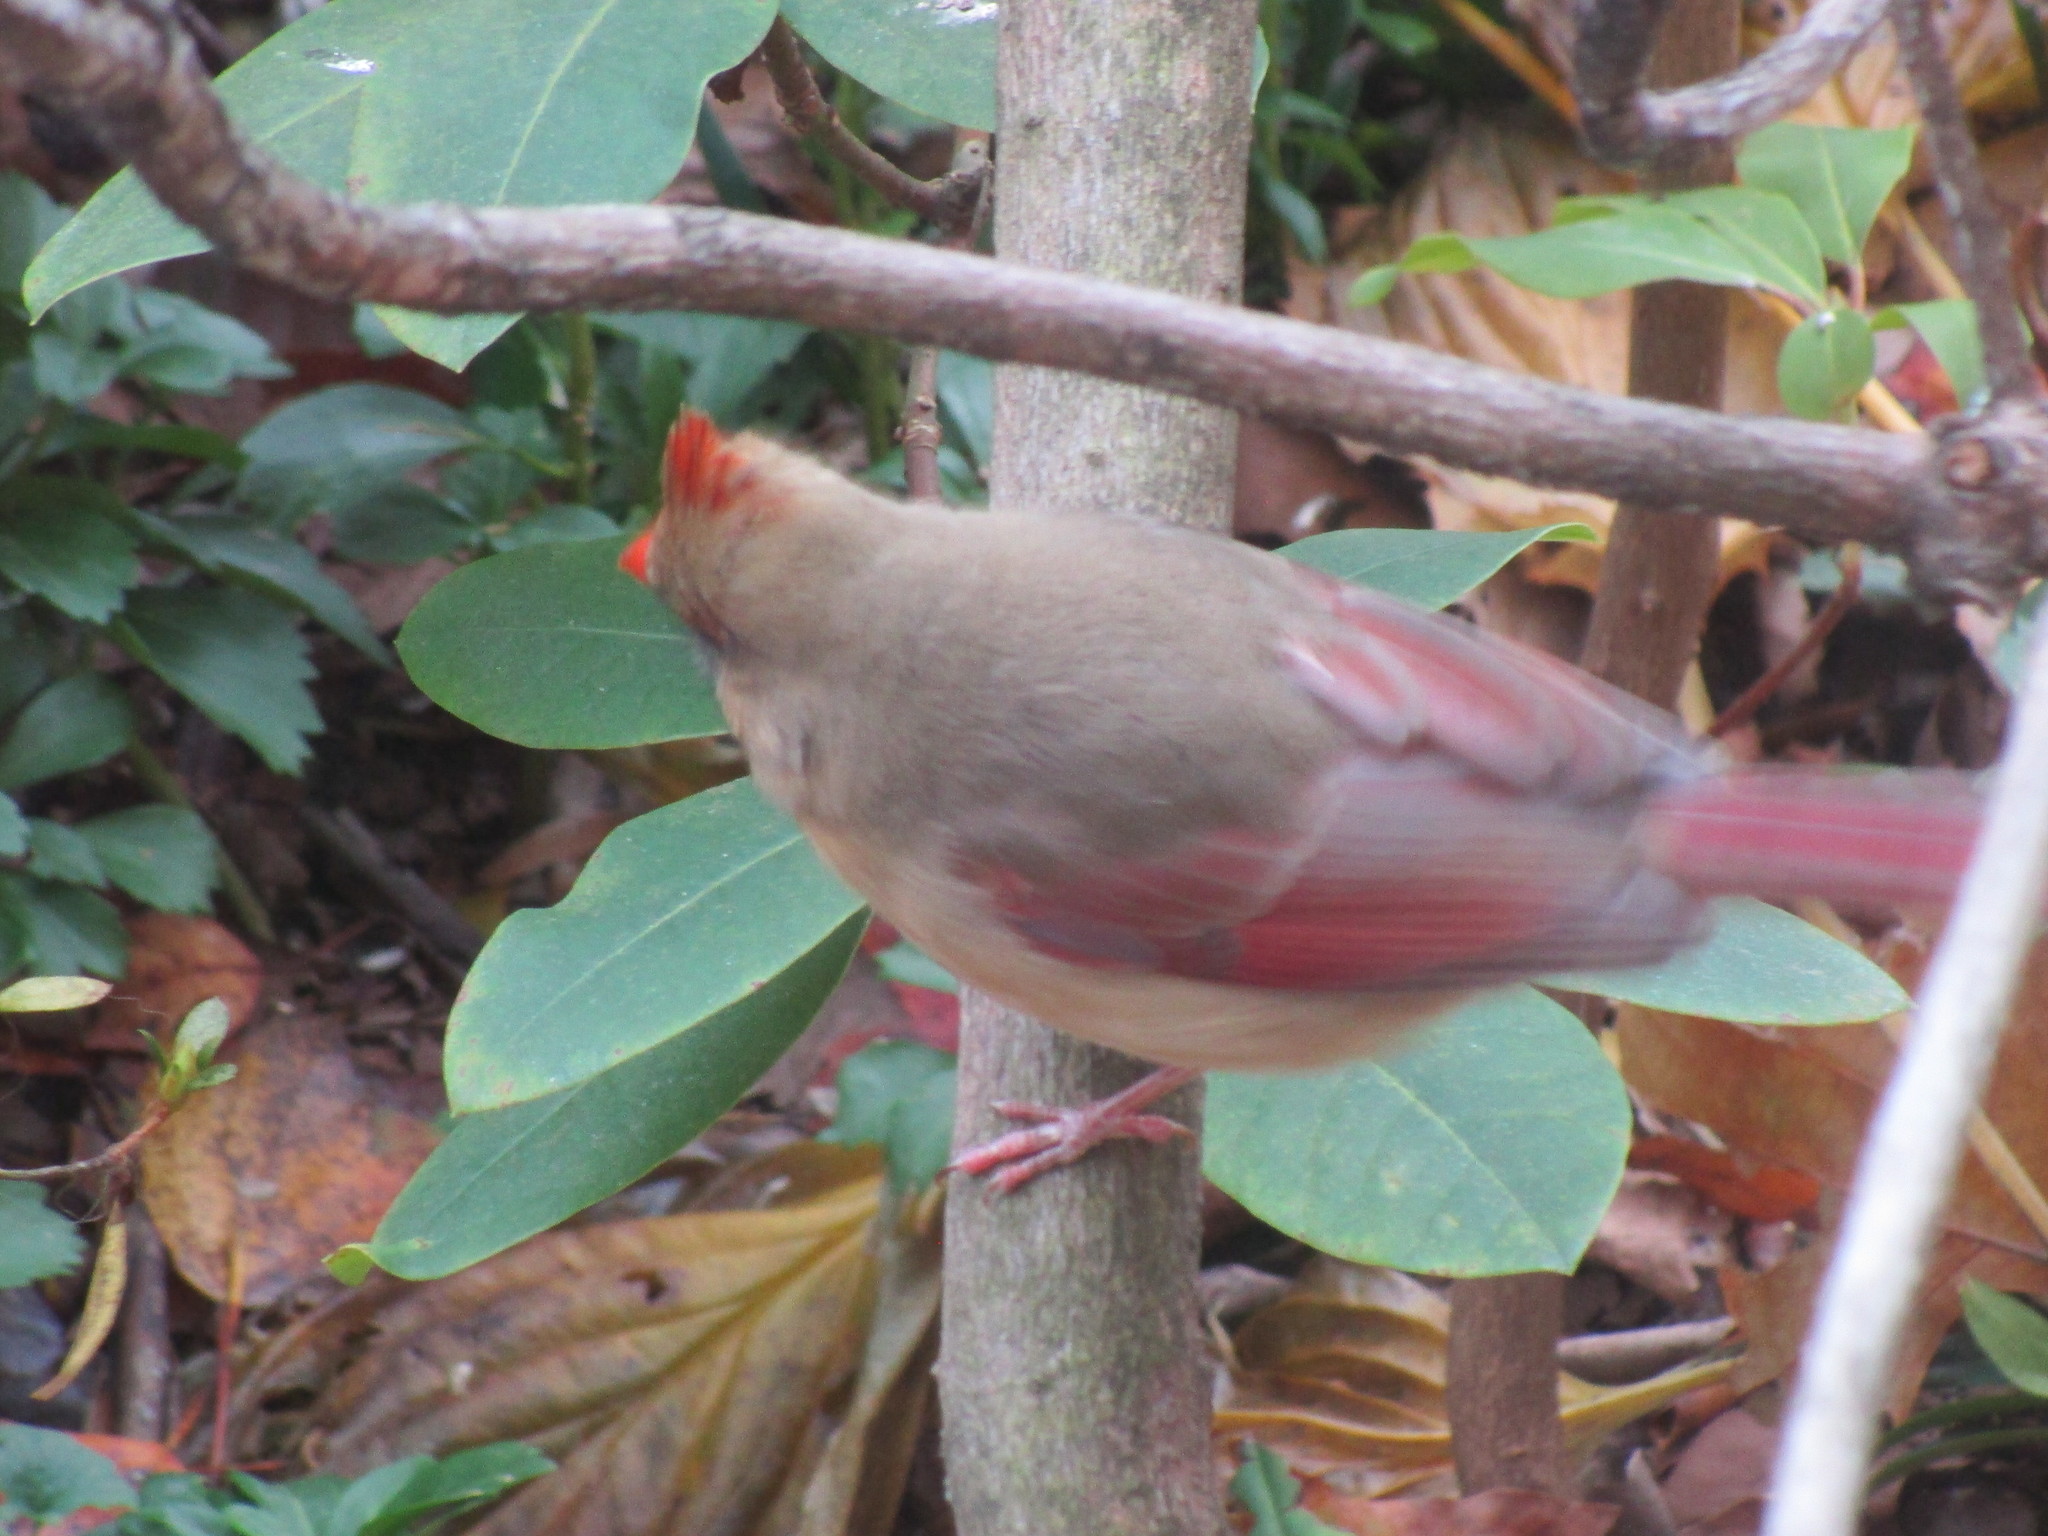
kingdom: Animalia
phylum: Chordata
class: Aves
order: Passeriformes
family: Cardinalidae
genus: Cardinalis
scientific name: Cardinalis cardinalis
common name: Northern cardinal
